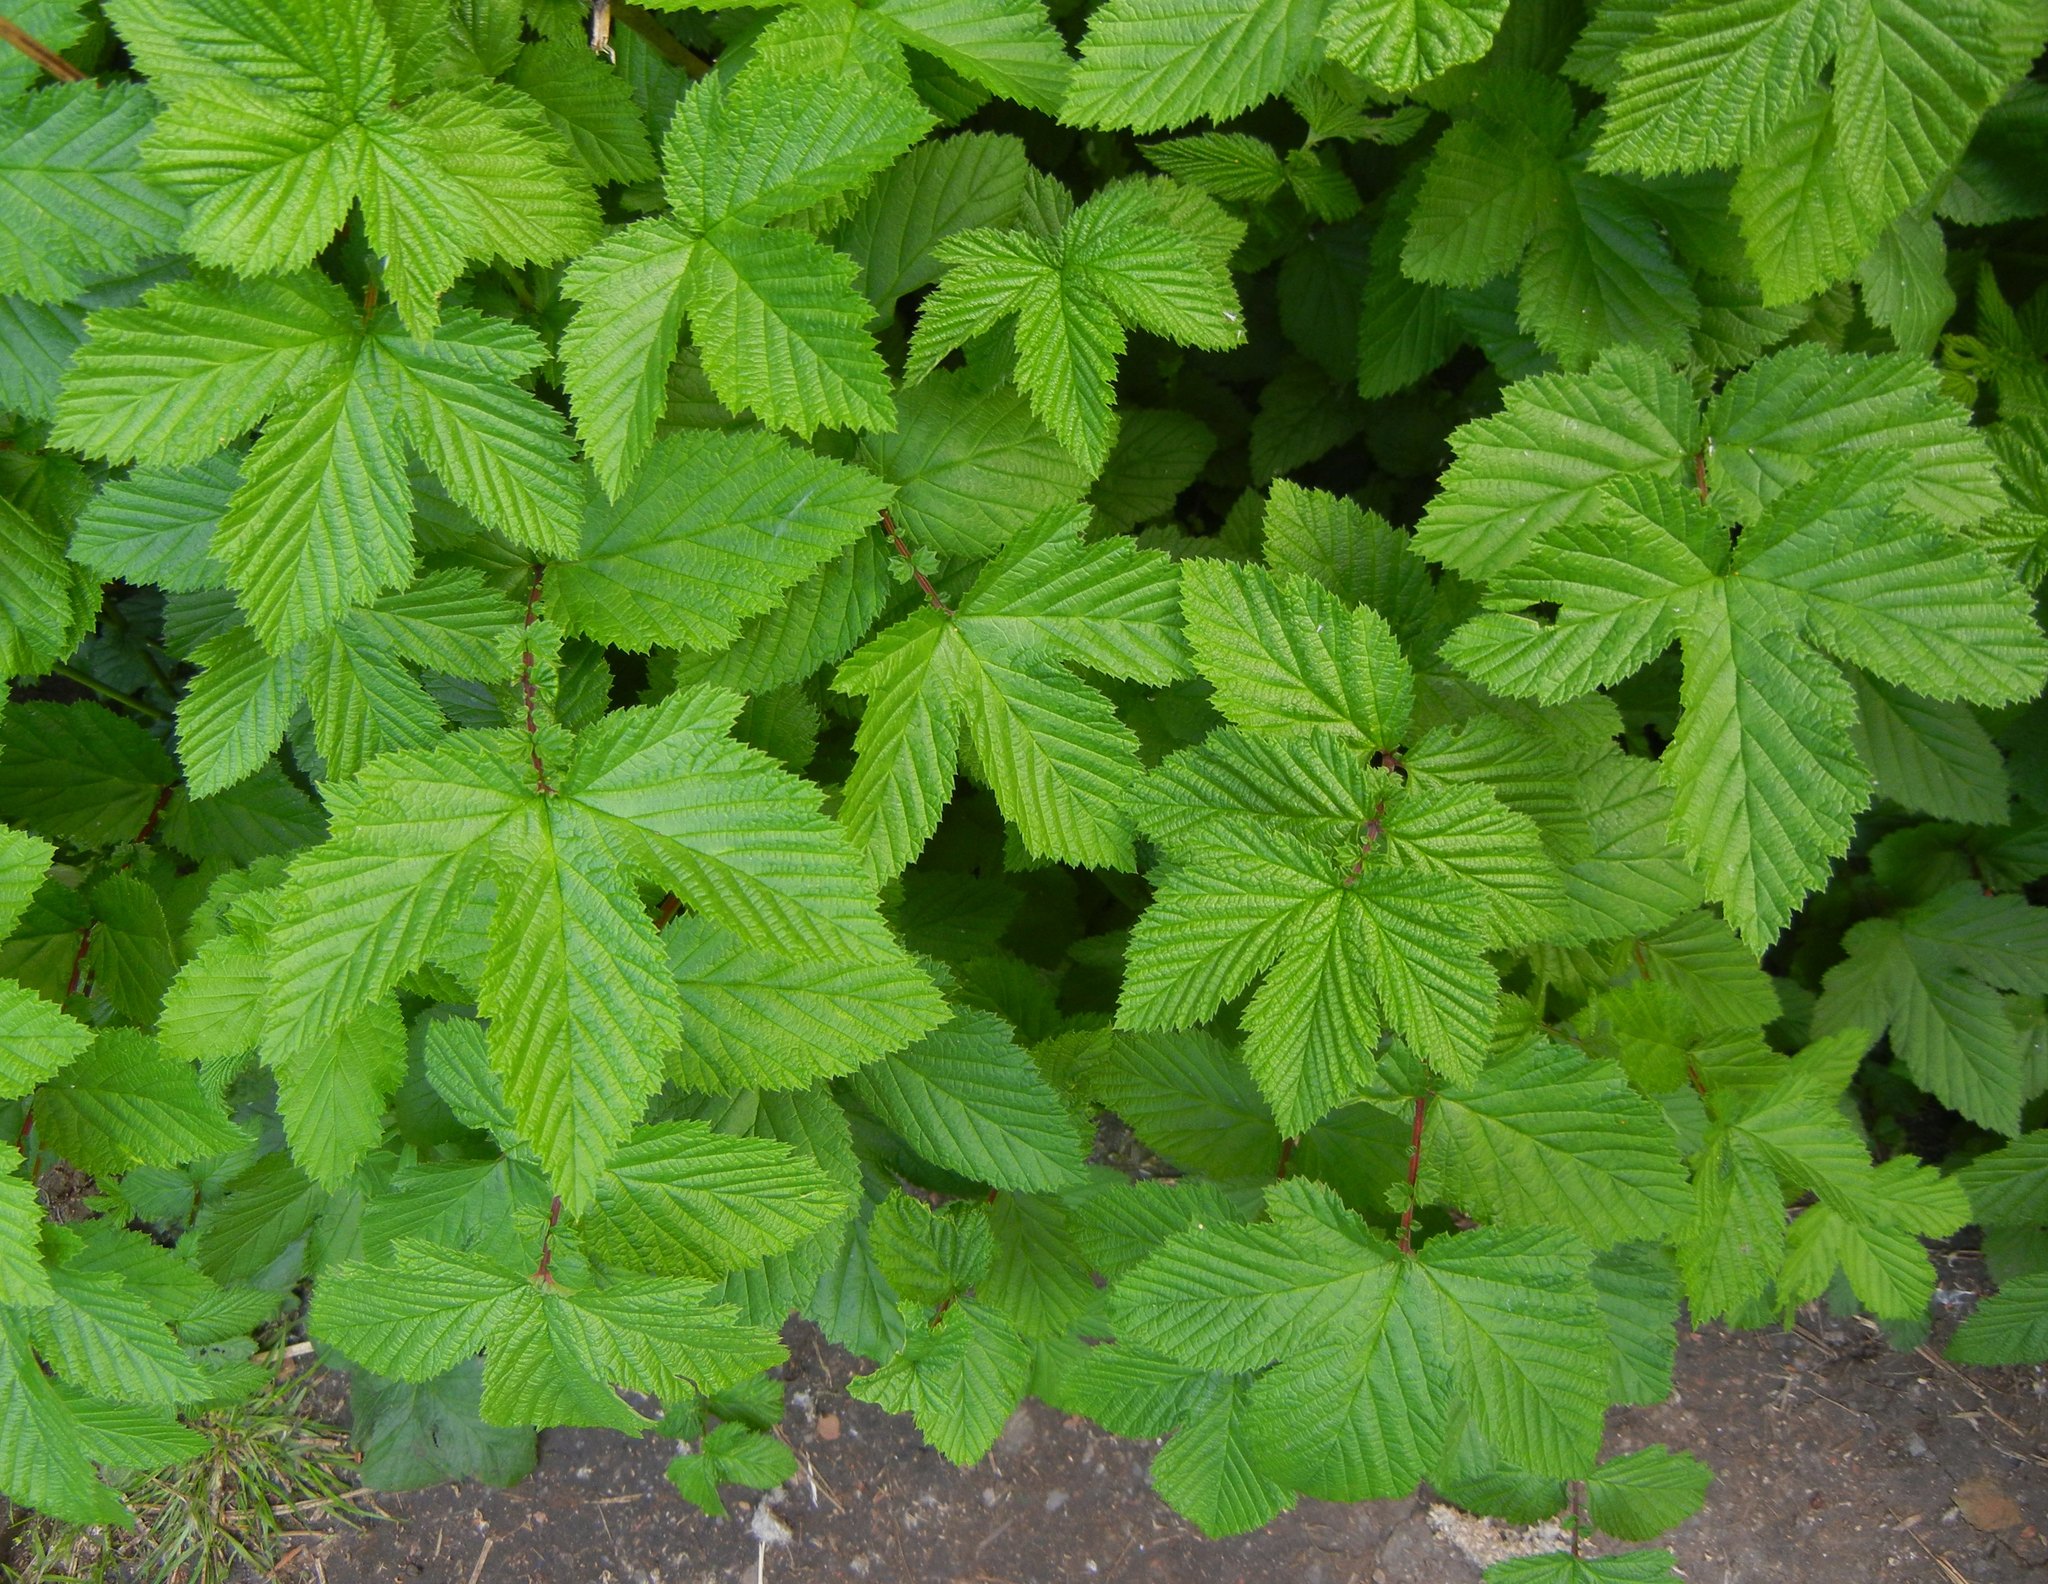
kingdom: Plantae
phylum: Tracheophyta
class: Magnoliopsida
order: Rosales
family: Rosaceae
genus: Filipendula
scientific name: Filipendula ulmaria
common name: Meadowsweet
